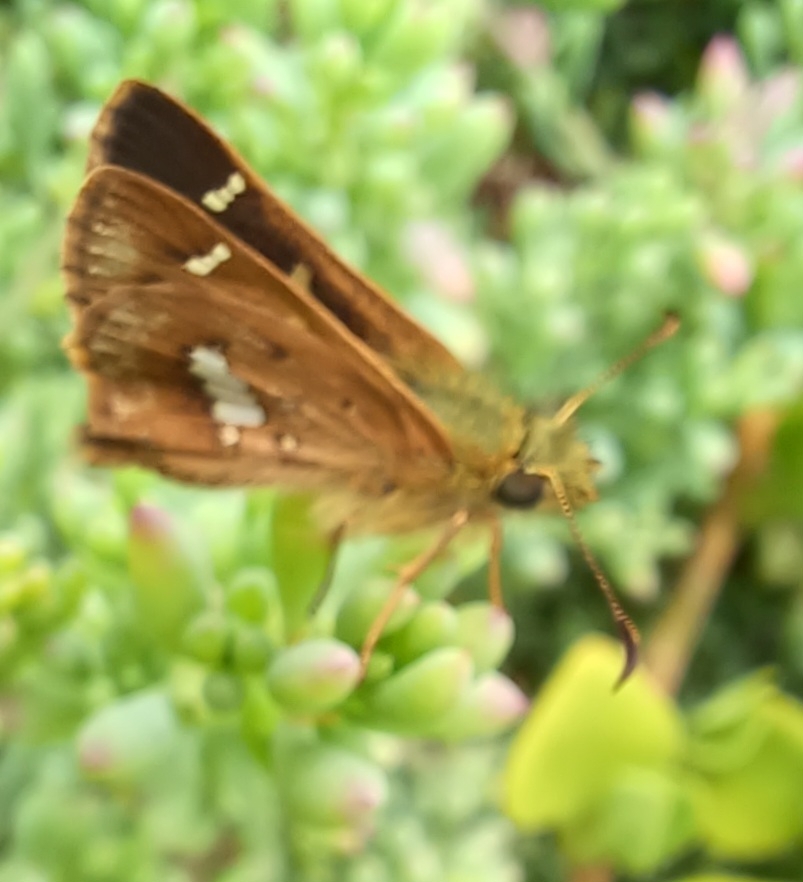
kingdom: Animalia
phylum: Arthropoda
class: Insecta
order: Lepidoptera
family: Hesperiidae
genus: Dispar
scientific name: Dispar compacta
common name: Barred skipper
